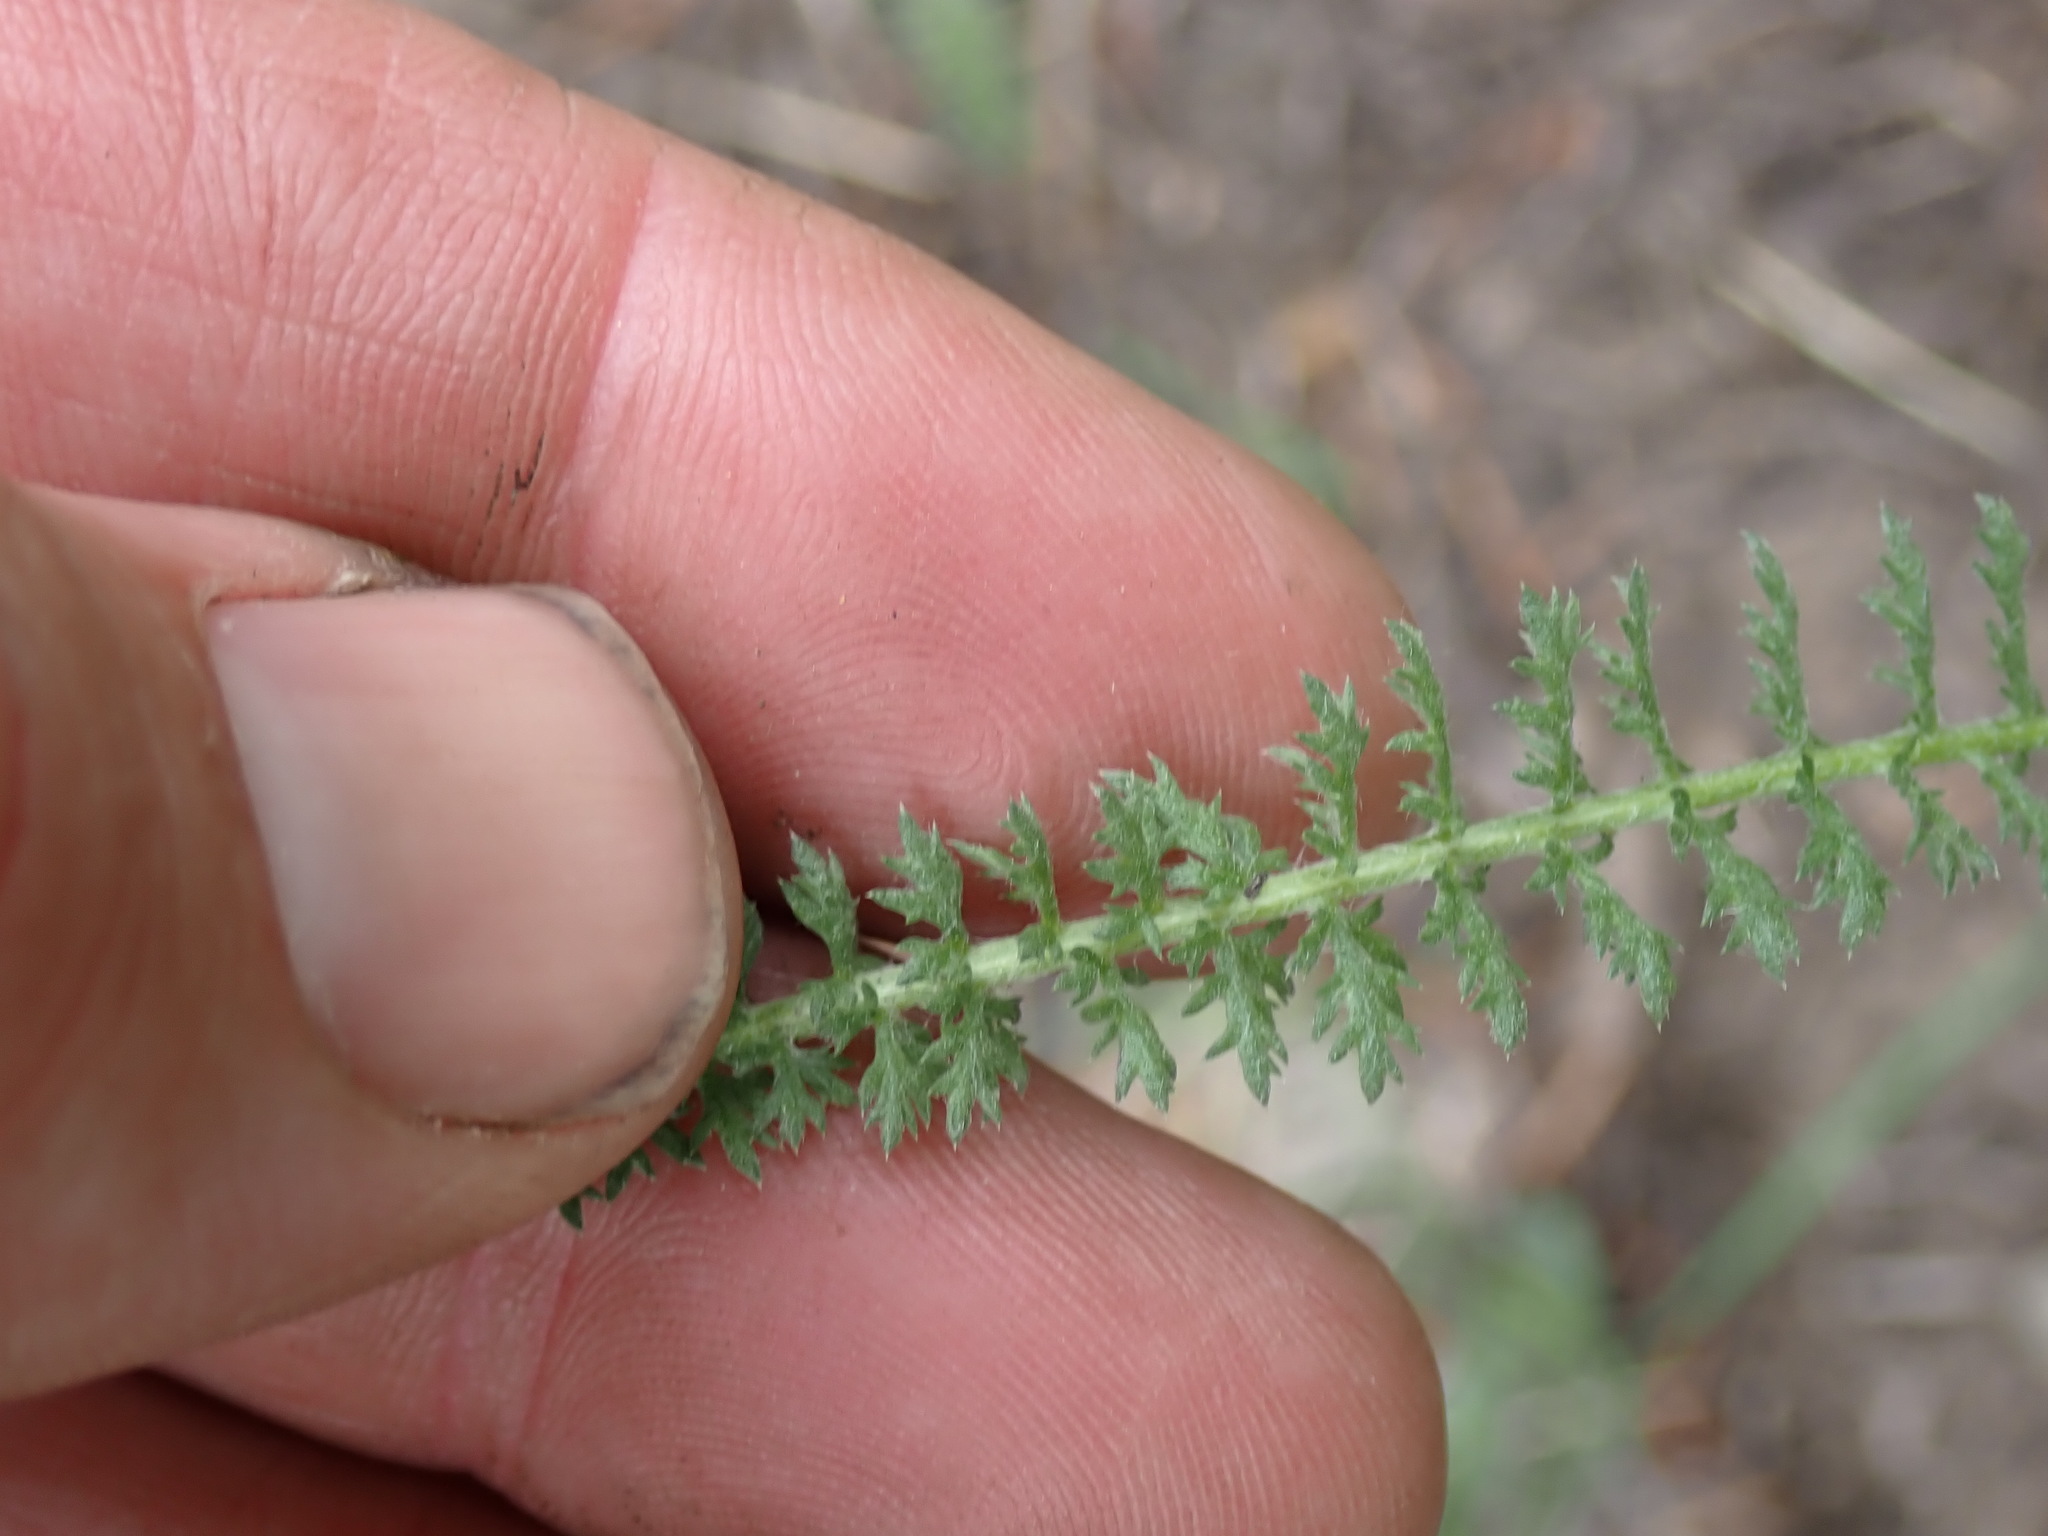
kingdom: Plantae
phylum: Tracheophyta
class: Magnoliopsida
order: Asterales
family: Asteraceae
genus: Achillea
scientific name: Achillea millefolium
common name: Yarrow
